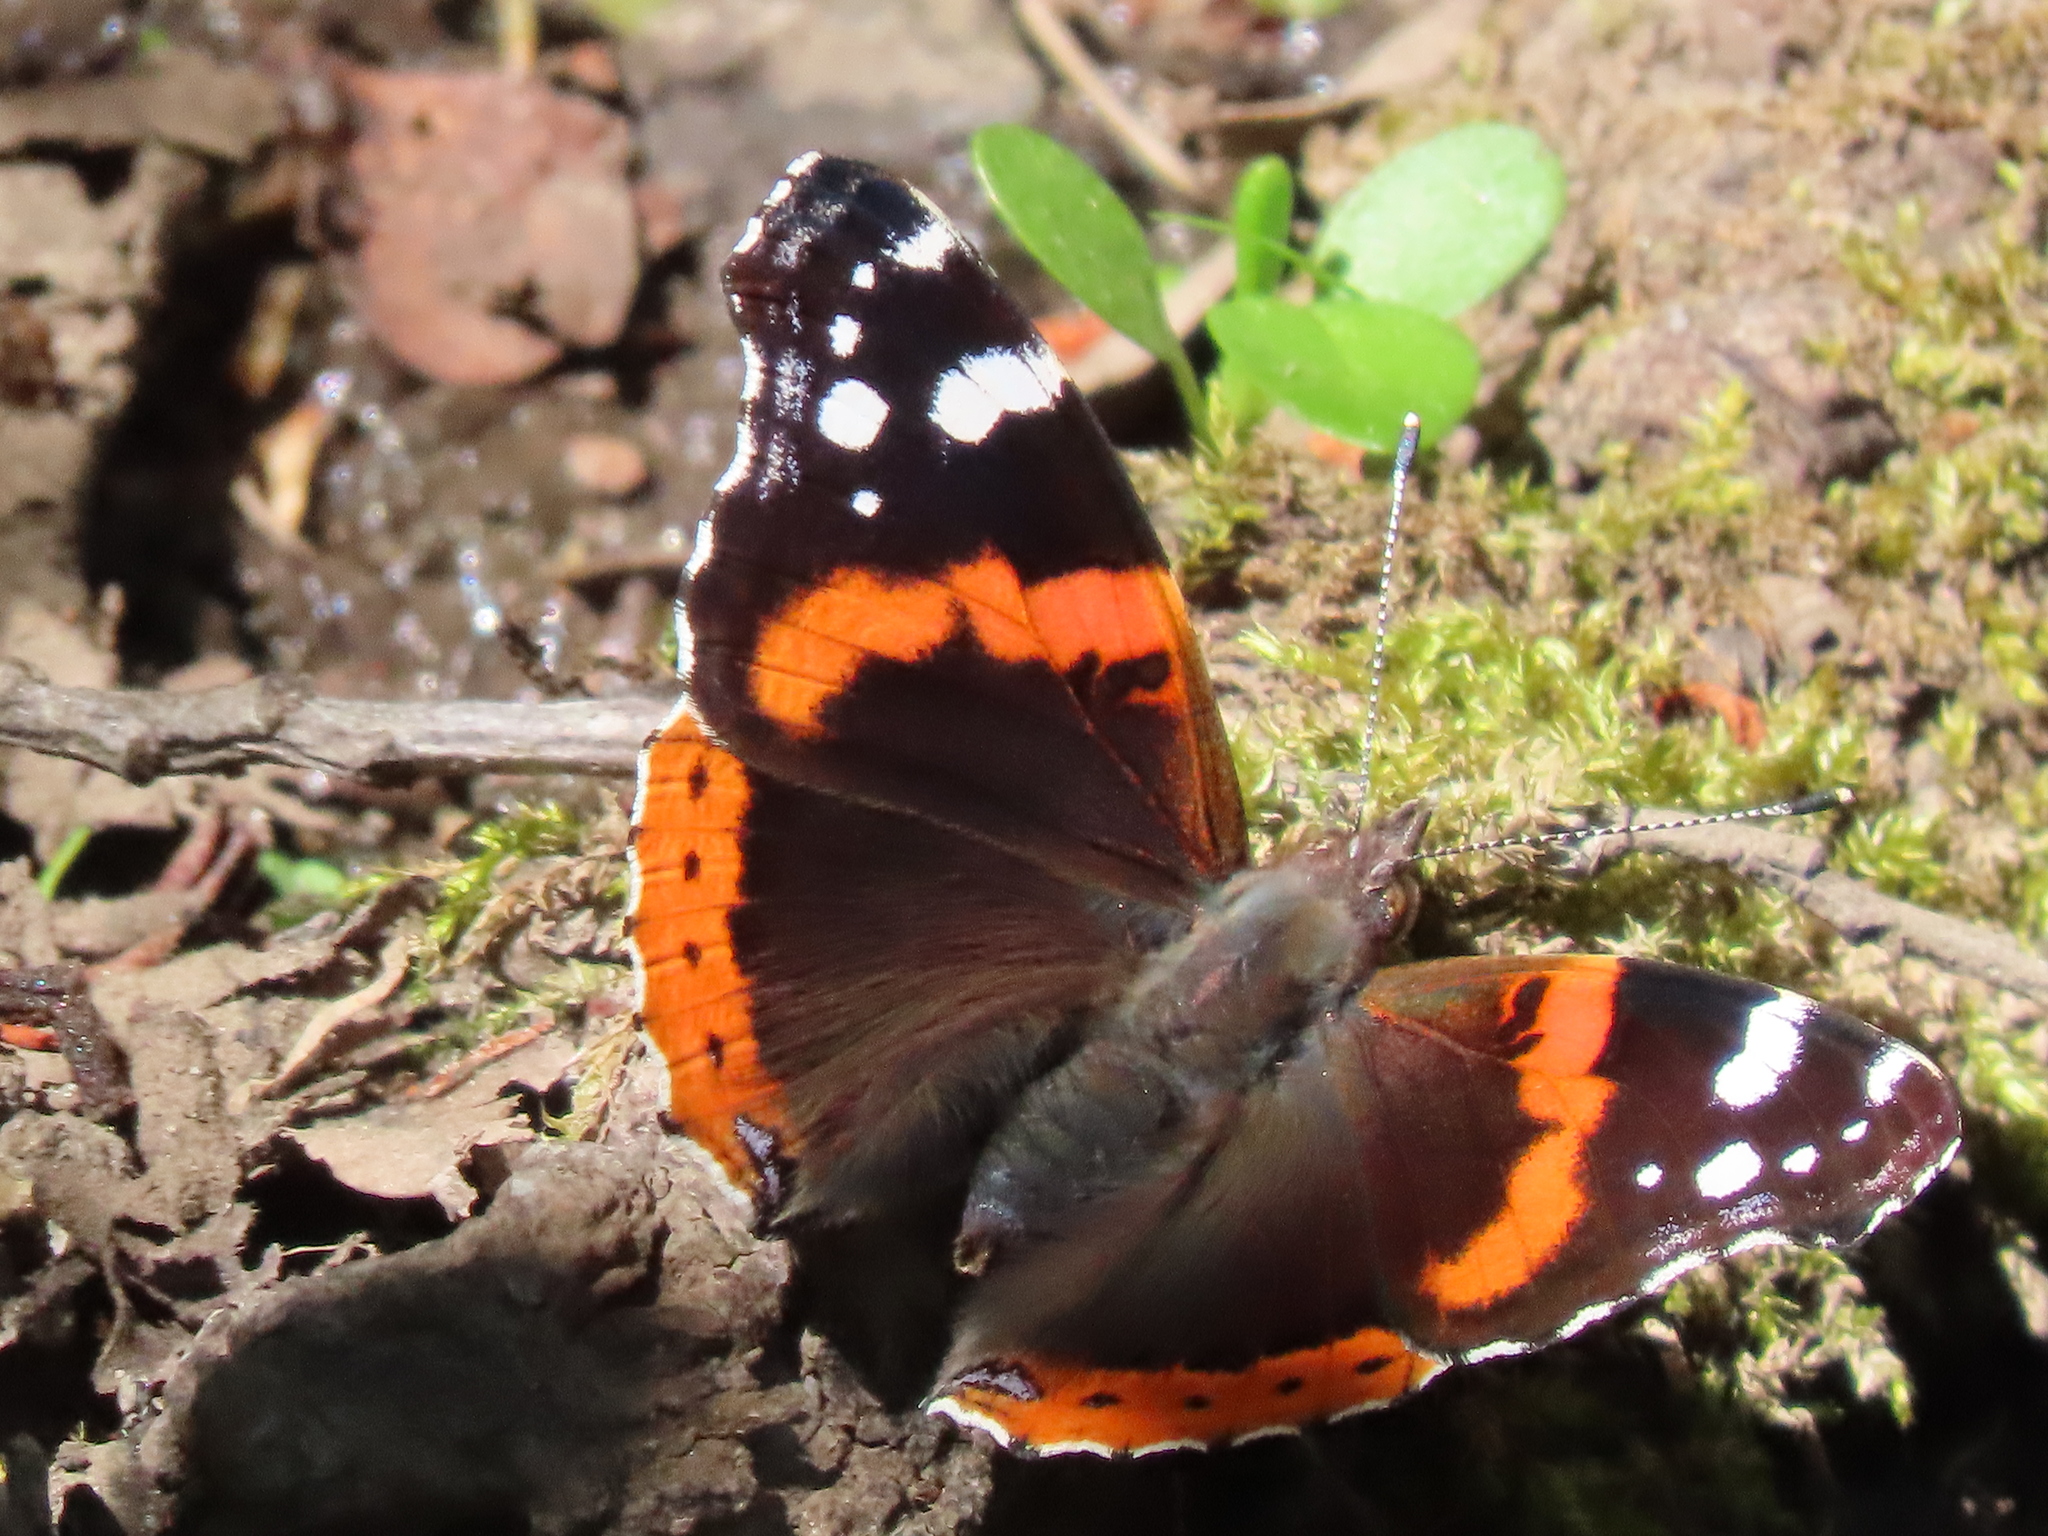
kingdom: Animalia
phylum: Arthropoda
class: Insecta
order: Lepidoptera
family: Nymphalidae
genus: Vanessa
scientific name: Vanessa atalanta
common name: Red admiral
